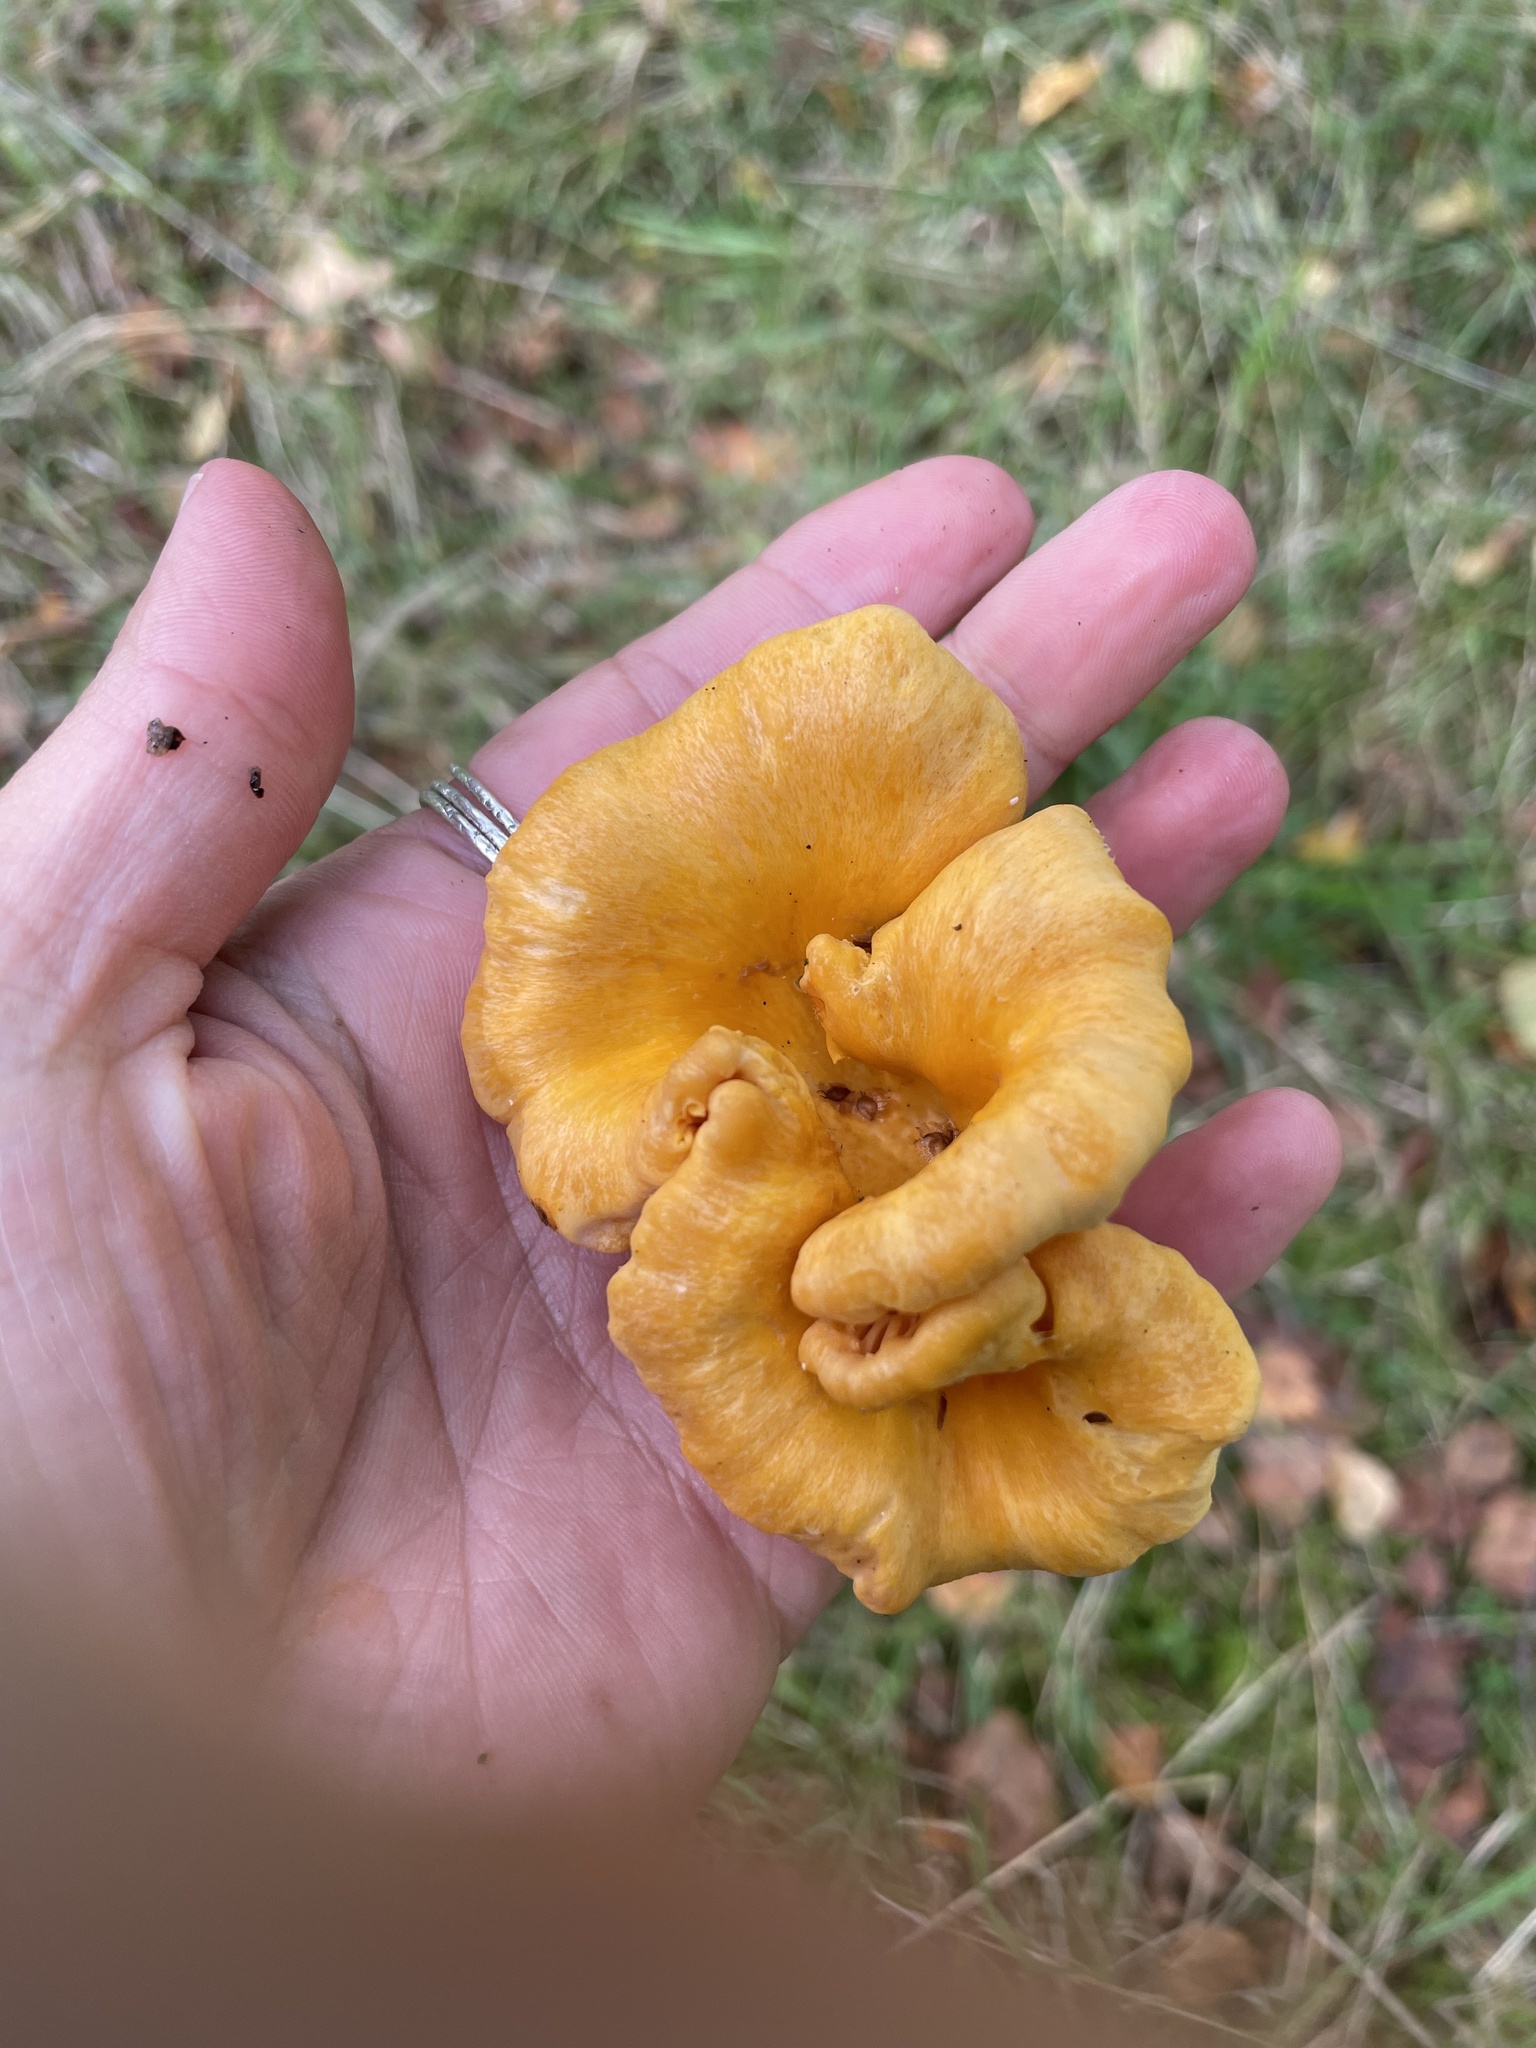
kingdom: Fungi
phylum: Basidiomycota
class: Agaricomycetes
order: Cantharellales
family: Hydnaceae
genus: Cantharellus
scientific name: Cantharellus cibarius
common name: Chanterelle
